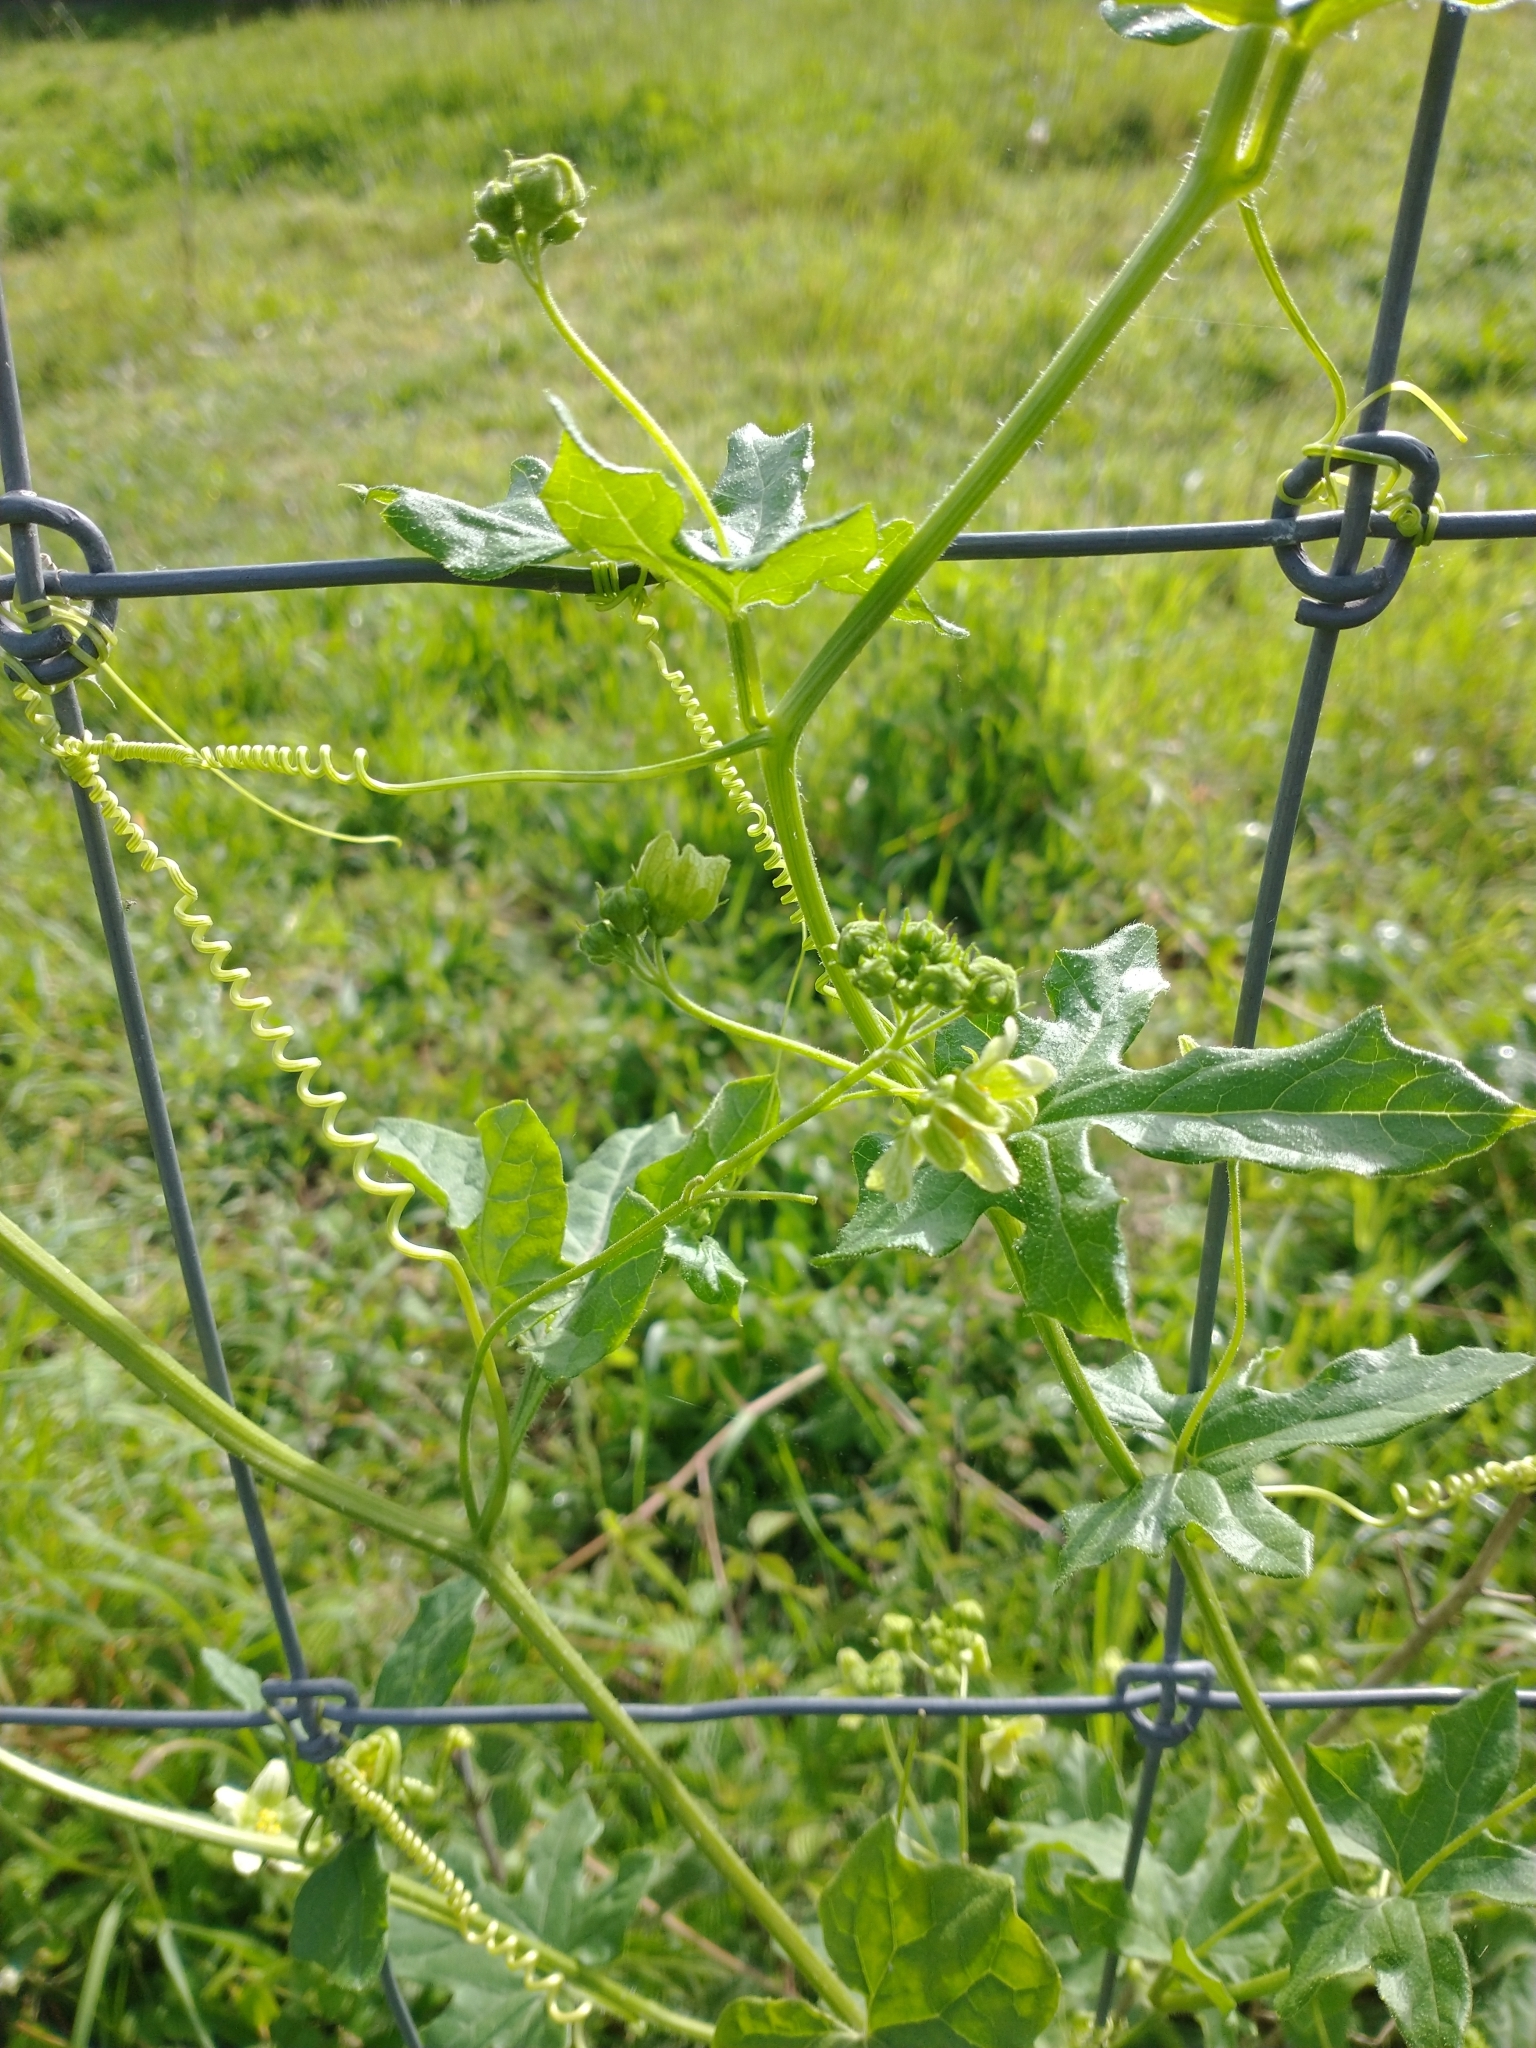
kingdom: Plantae
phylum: Tracheophyta
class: Magnoliopsida
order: Cucurbitales
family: Cucurbitaceae
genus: Bryonia
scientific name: Bryonia dioica
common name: White bryony
